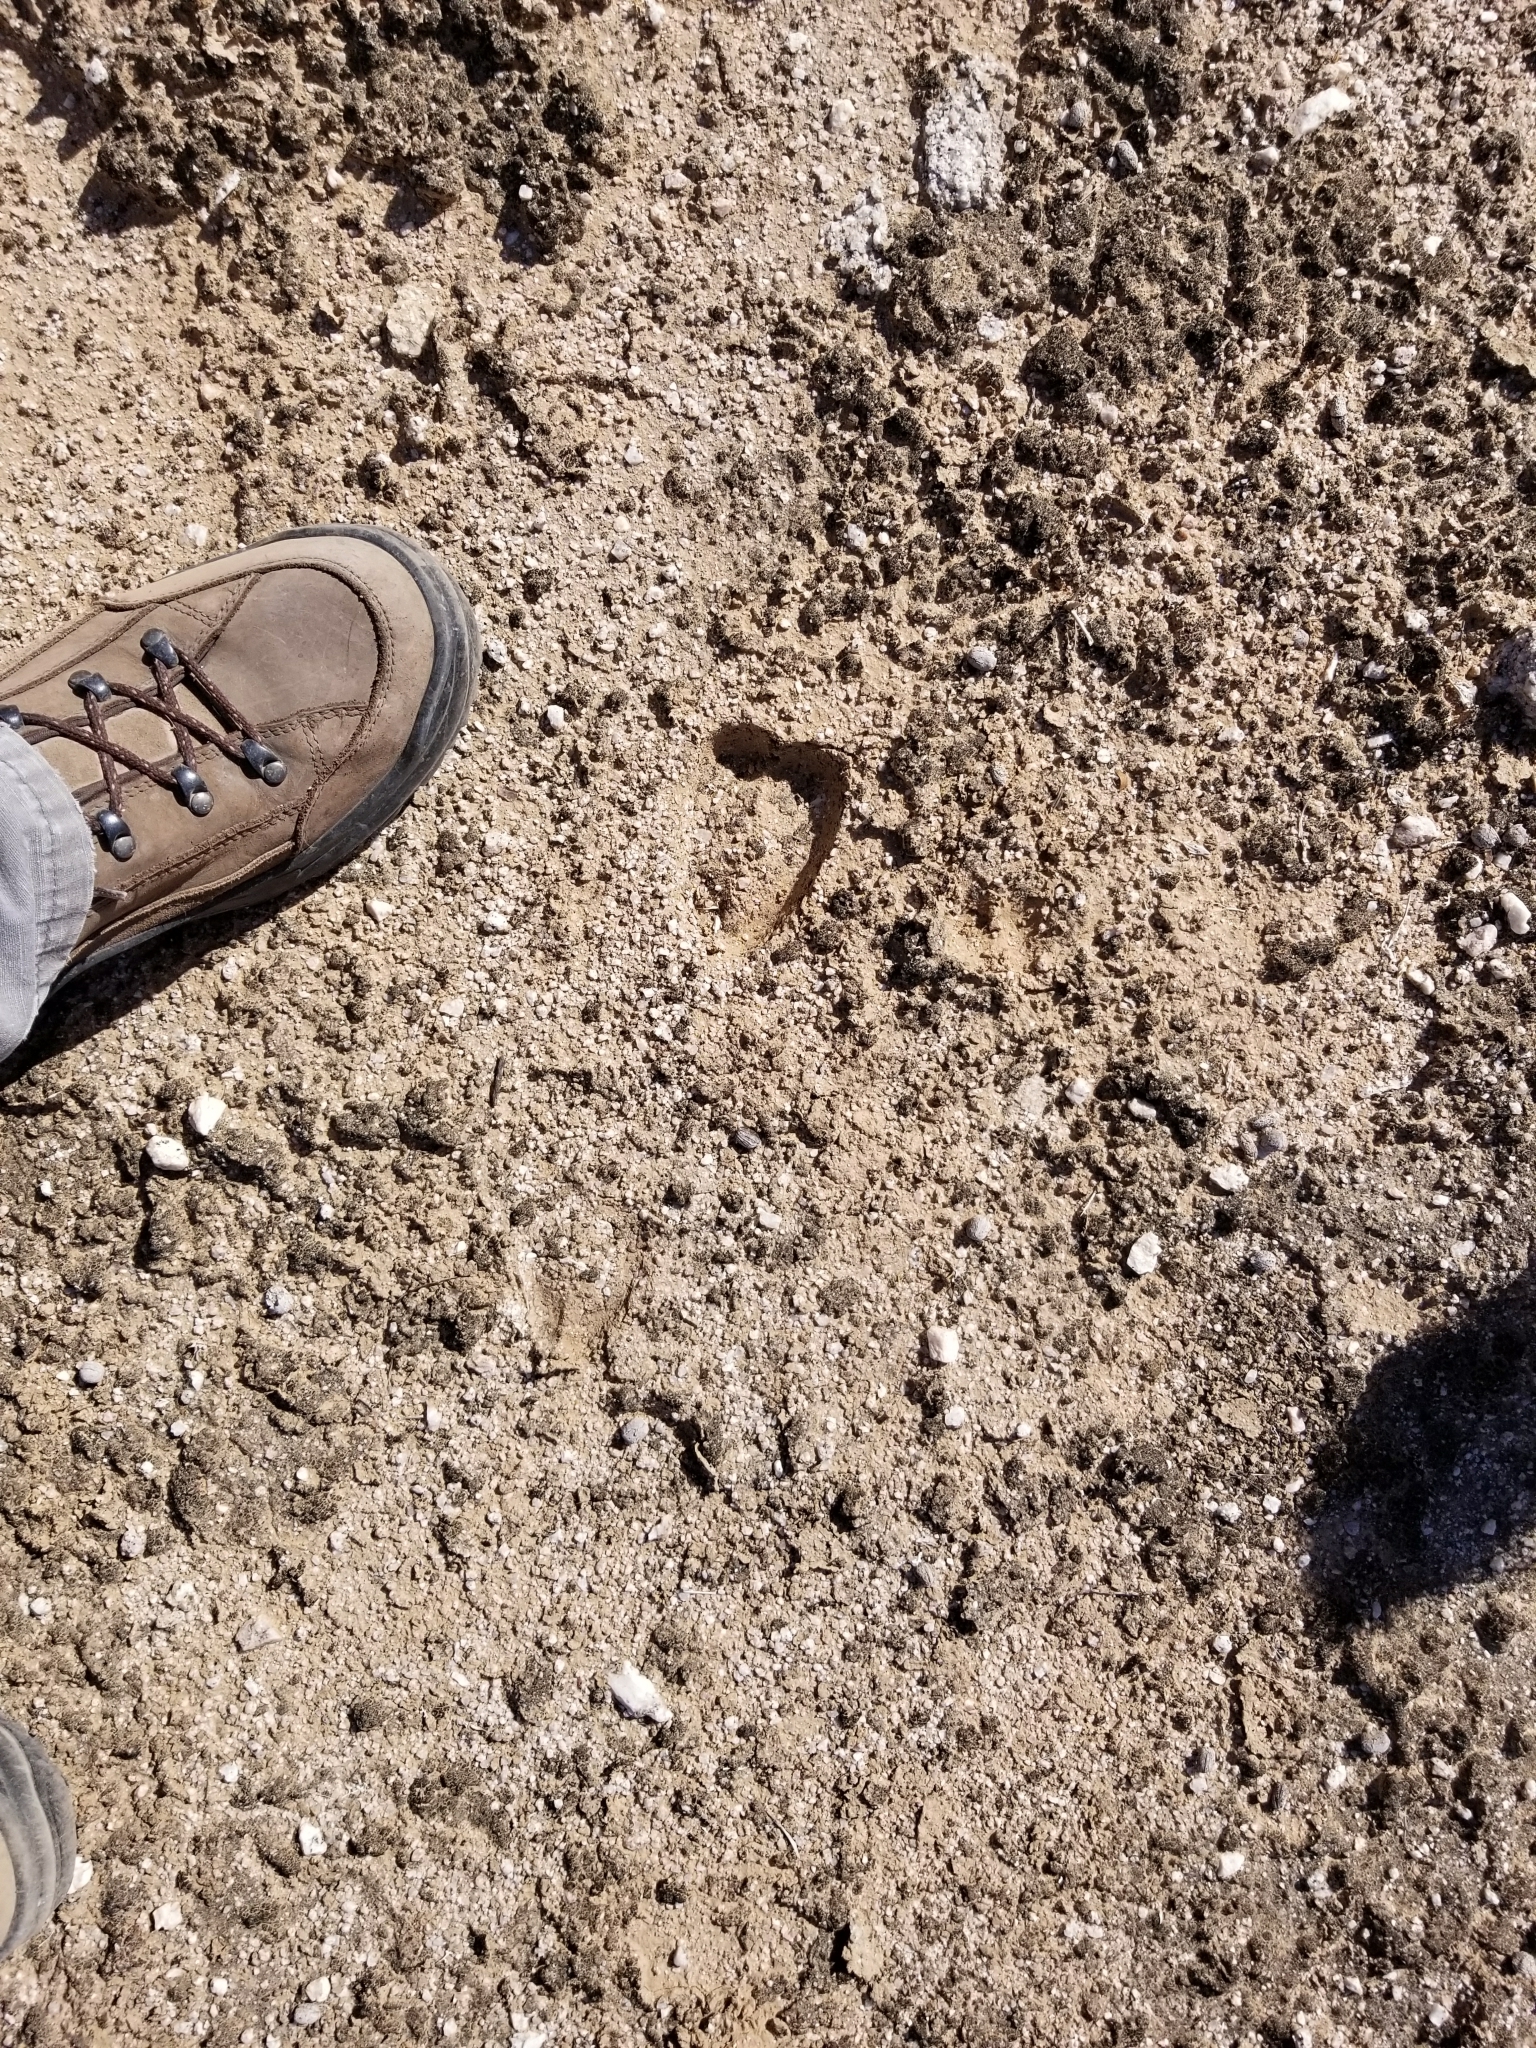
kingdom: Animalia
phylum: Chordata
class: Mammalia
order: Artiodactyla
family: Bovidae
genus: Ovis
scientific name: Ovis canadensis
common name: Bighorn sheep
